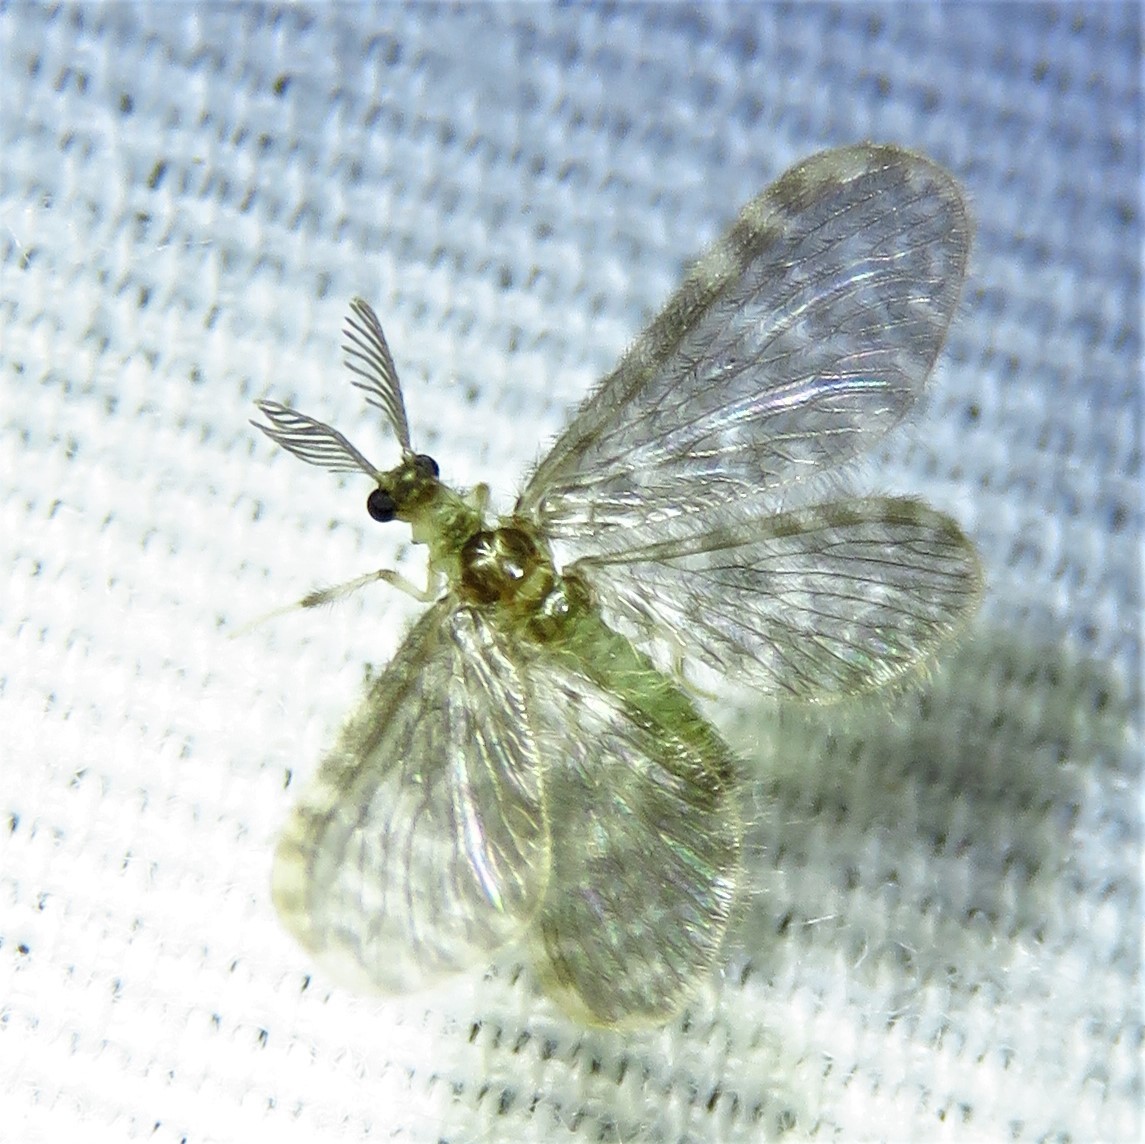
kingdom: Animalia
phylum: Arthropoda
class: Insecta
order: Neuroptera
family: Dilaridae
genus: Nallachius
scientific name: Nallachius americanus
